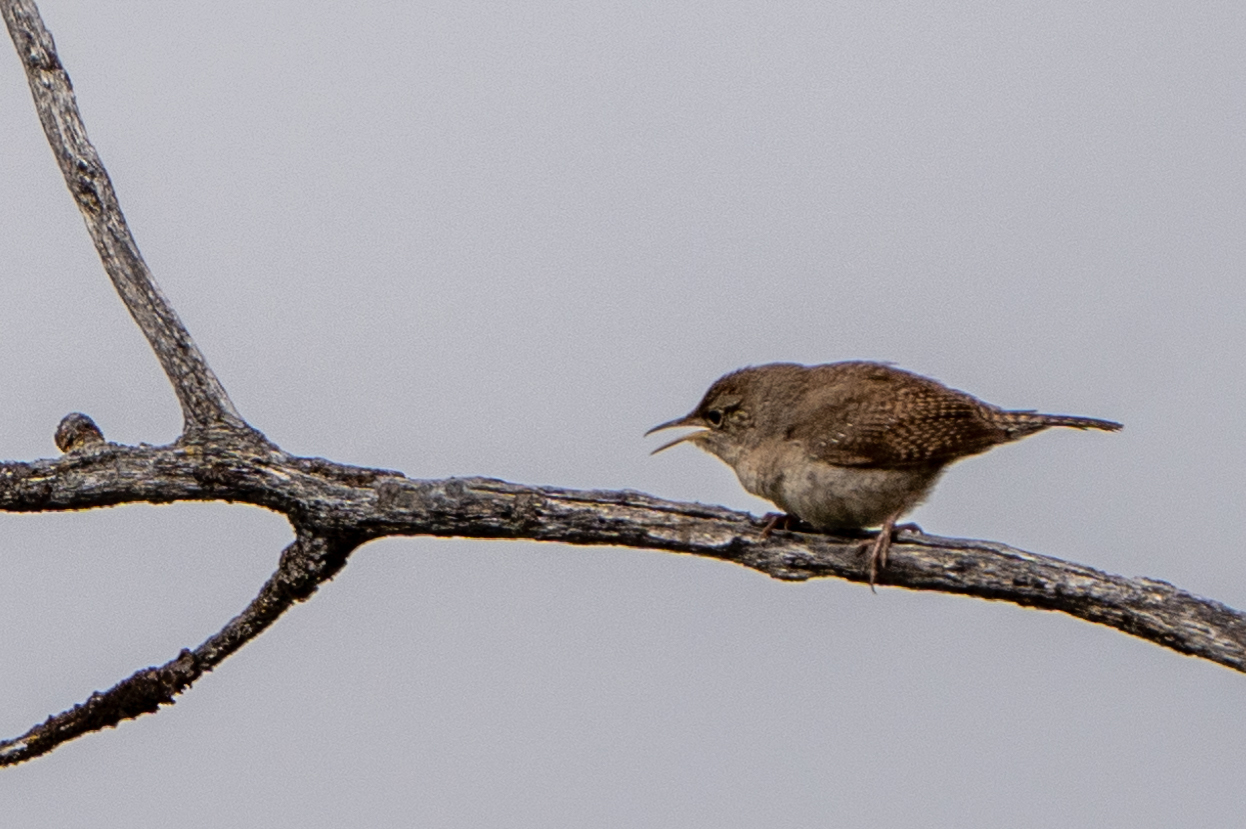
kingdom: Animalia
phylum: Chordata
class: Aves
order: Passeriformes
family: Troglodytidae
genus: Troglodytes
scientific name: Troglodytes aedon
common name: House wren
